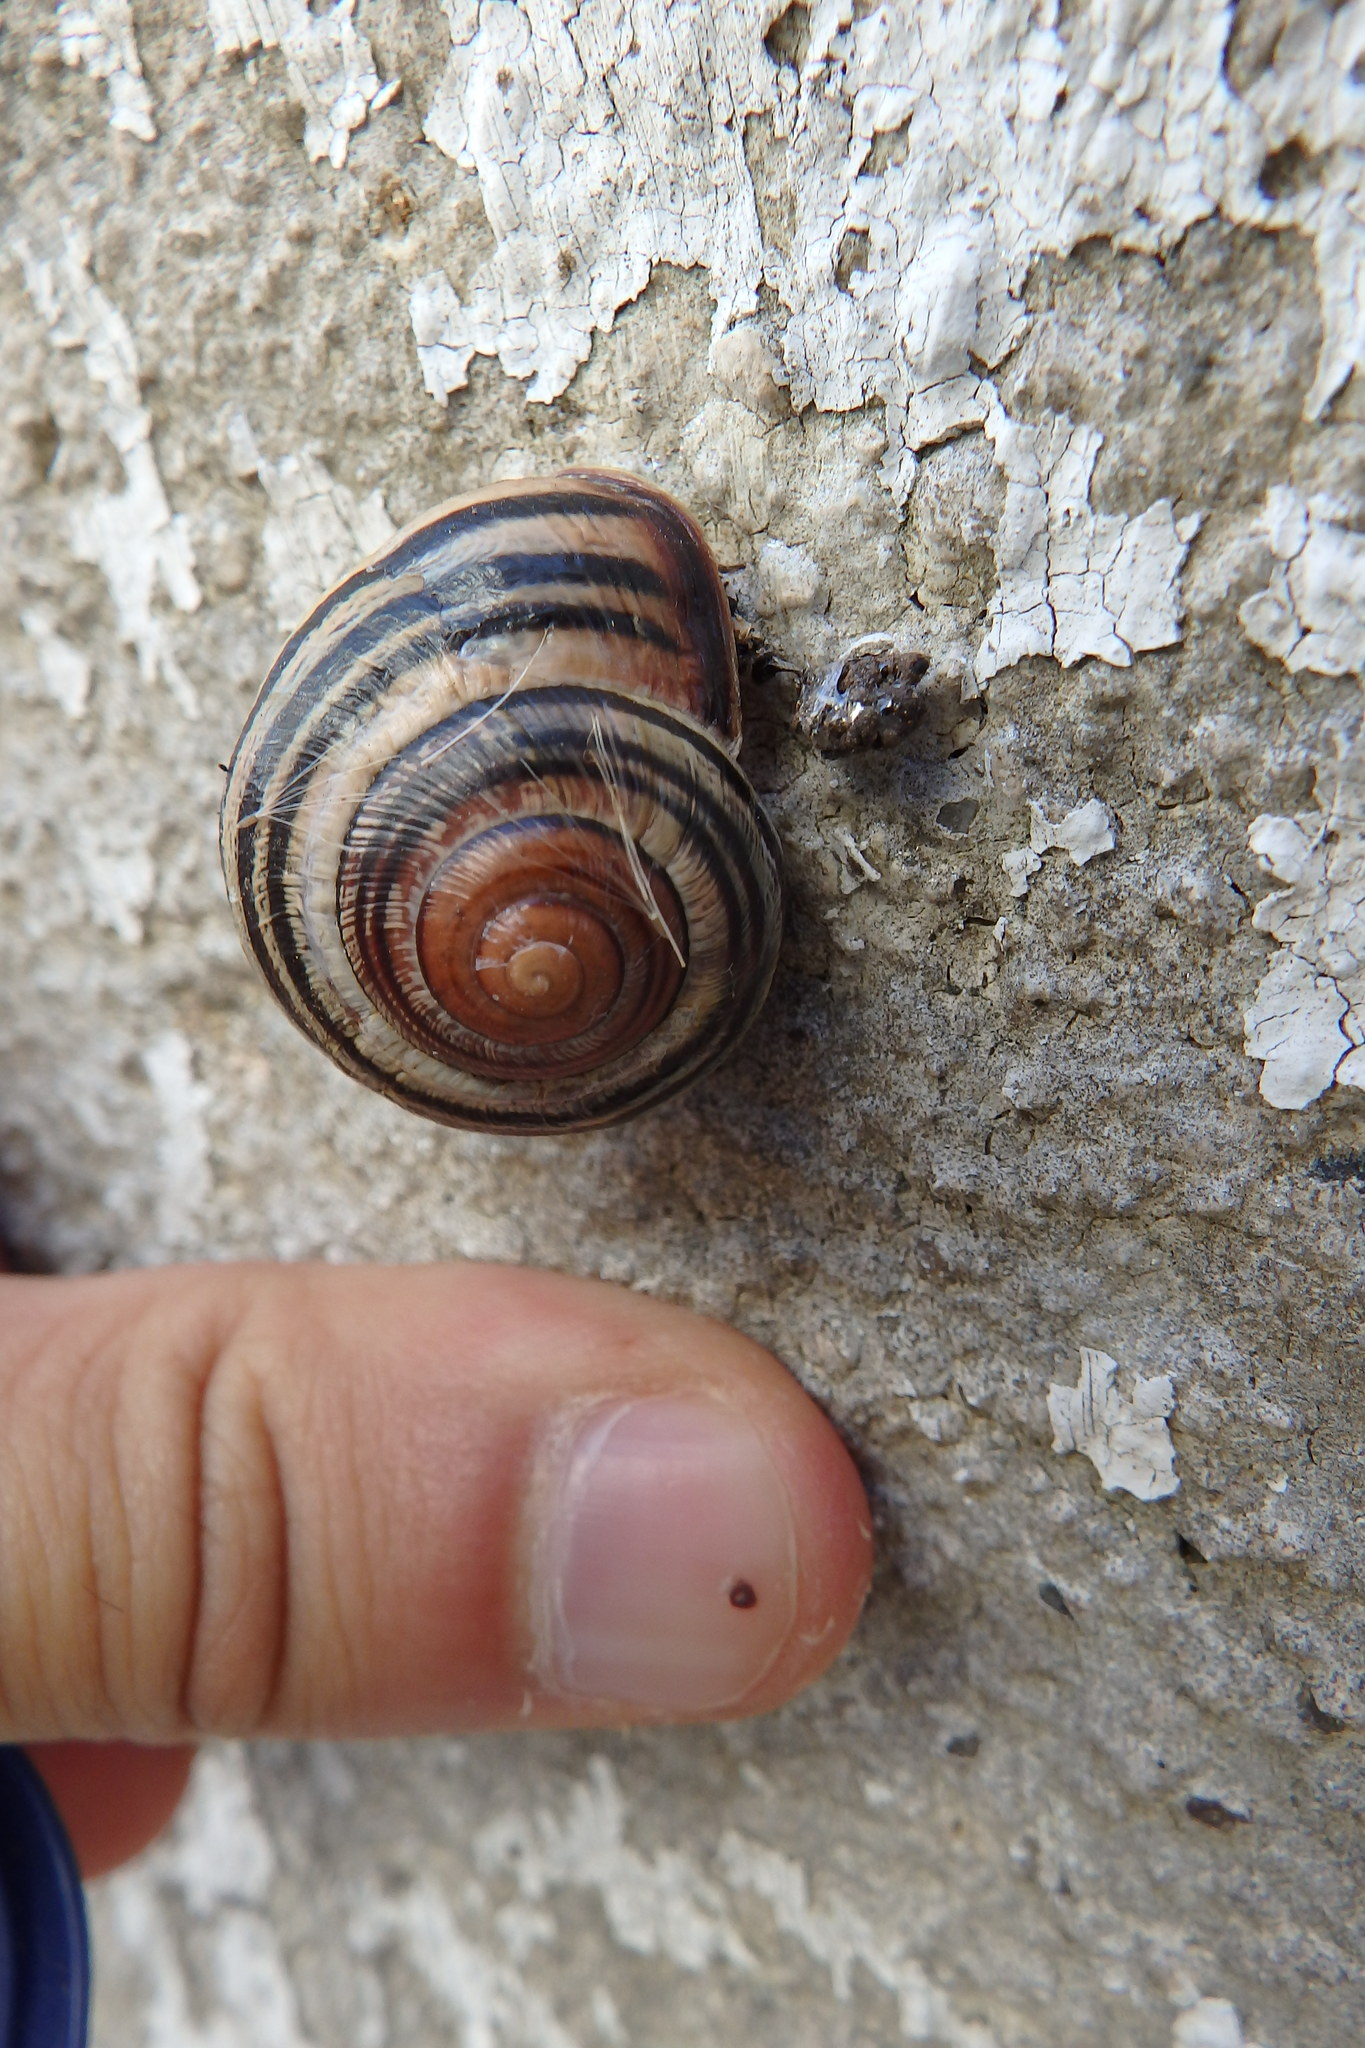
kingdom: Animalia
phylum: Mollusca
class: Gastropoda
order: Stylommatophora
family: Helicidae
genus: Cepaea
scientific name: Cepaea nemoralis
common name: Grovesnail
